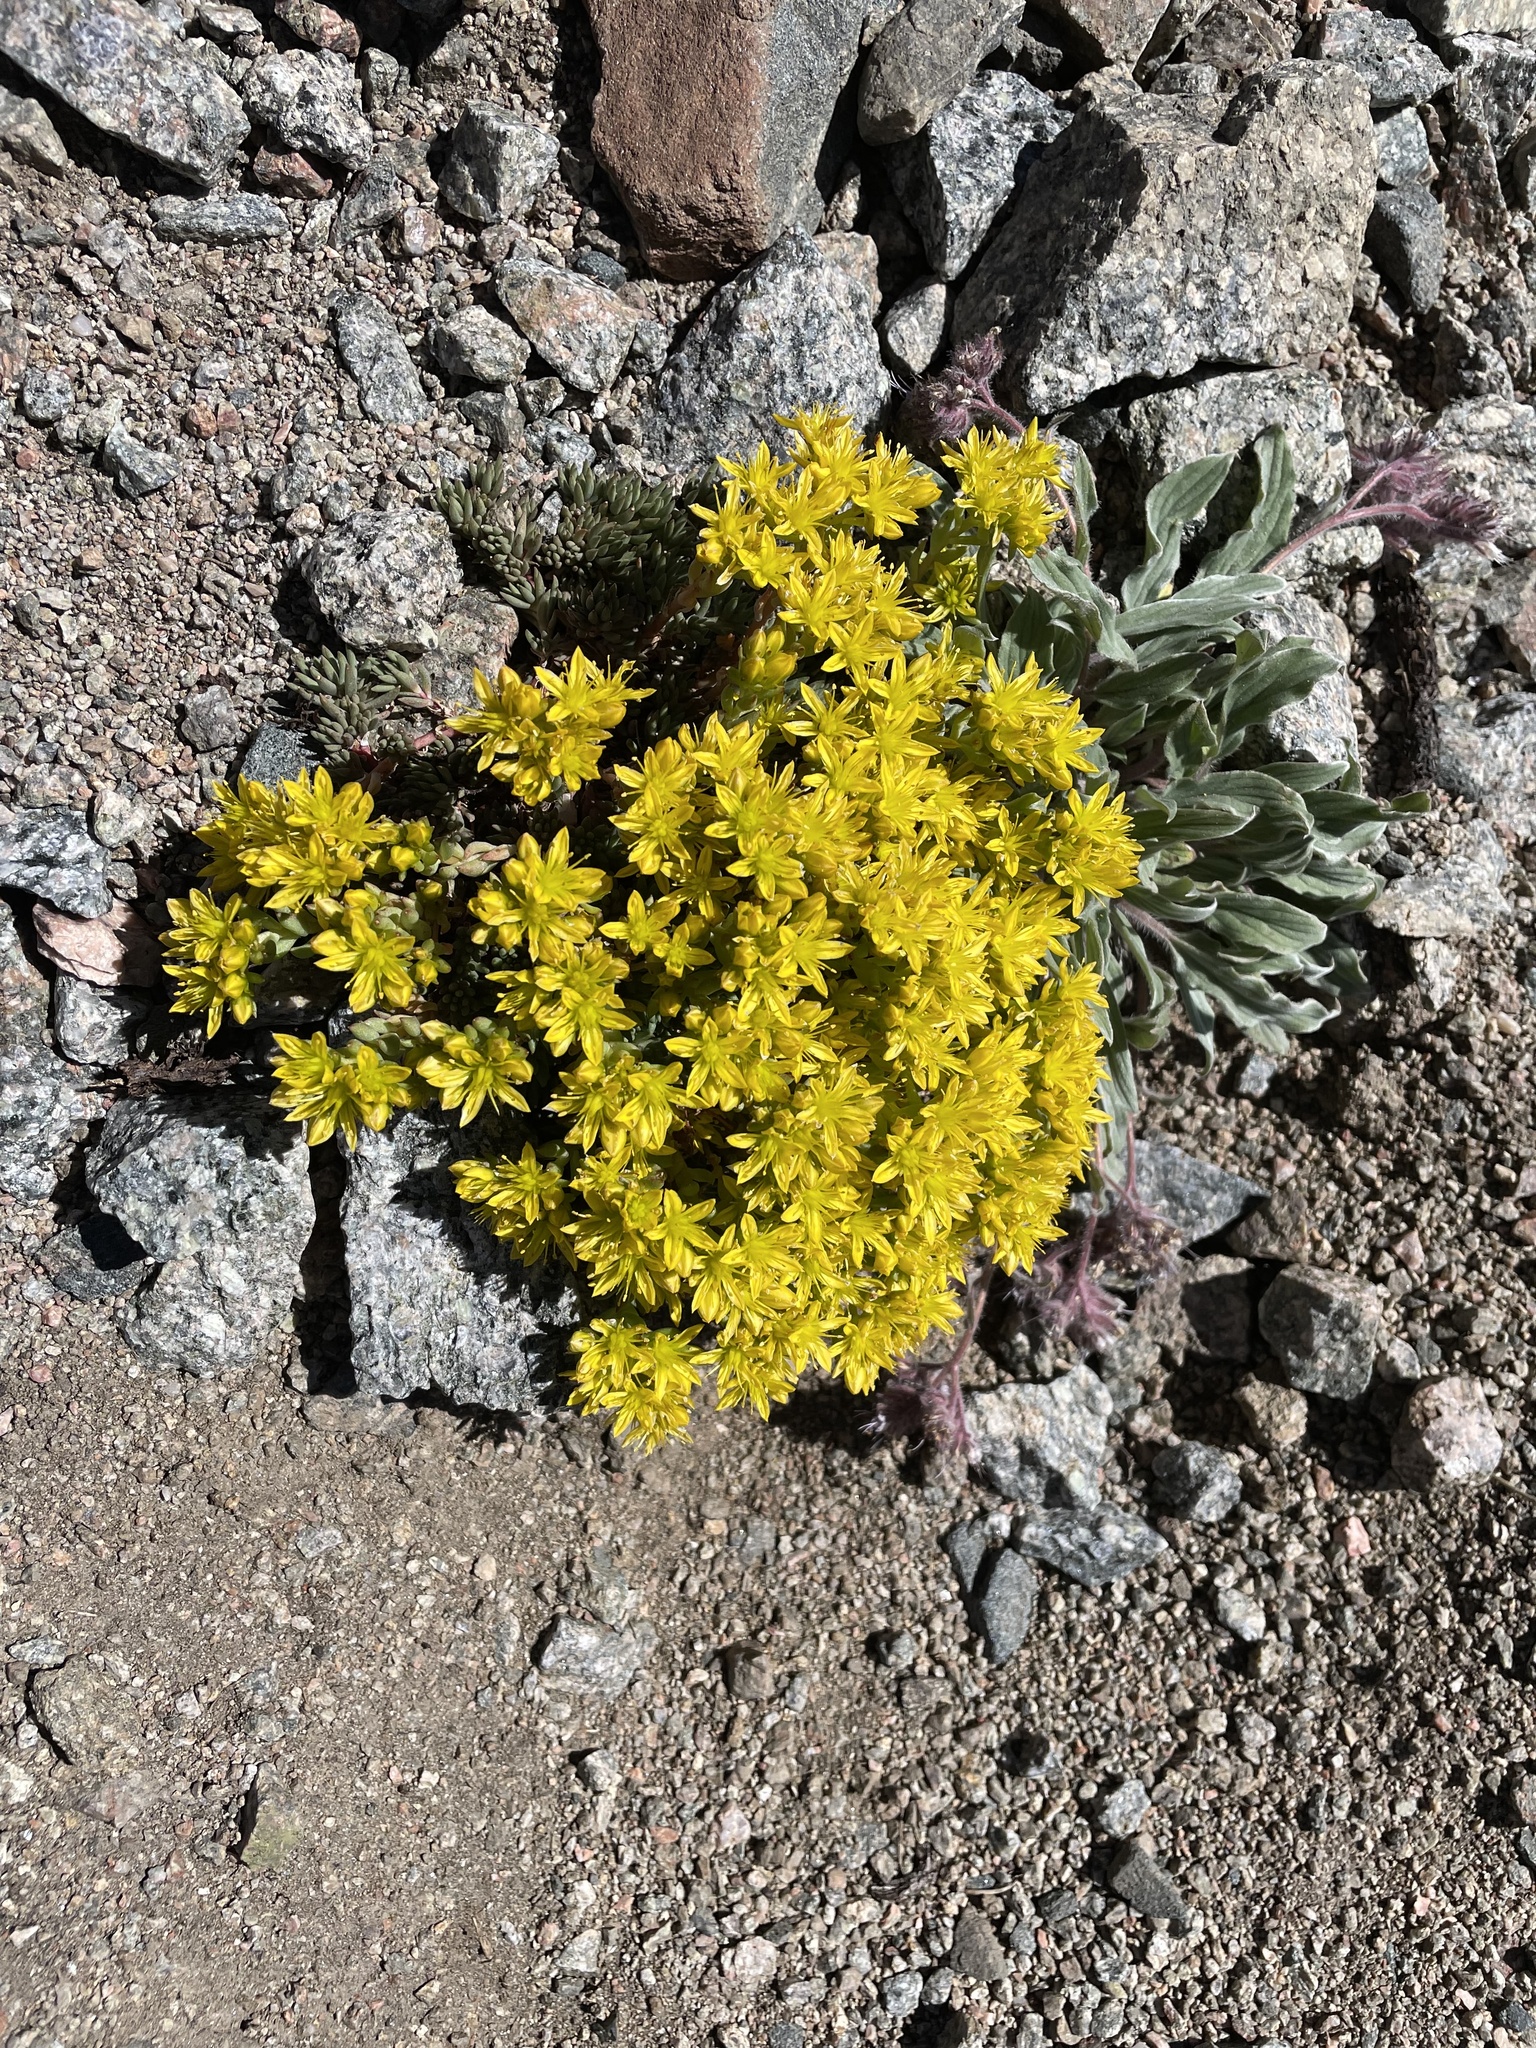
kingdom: Plantae
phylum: Tracheophyta
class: Magnoliopsida
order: Saxifragales
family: Crassulaceae
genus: Sedum
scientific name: Sedum lanceolatum
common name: Common stonecrop
